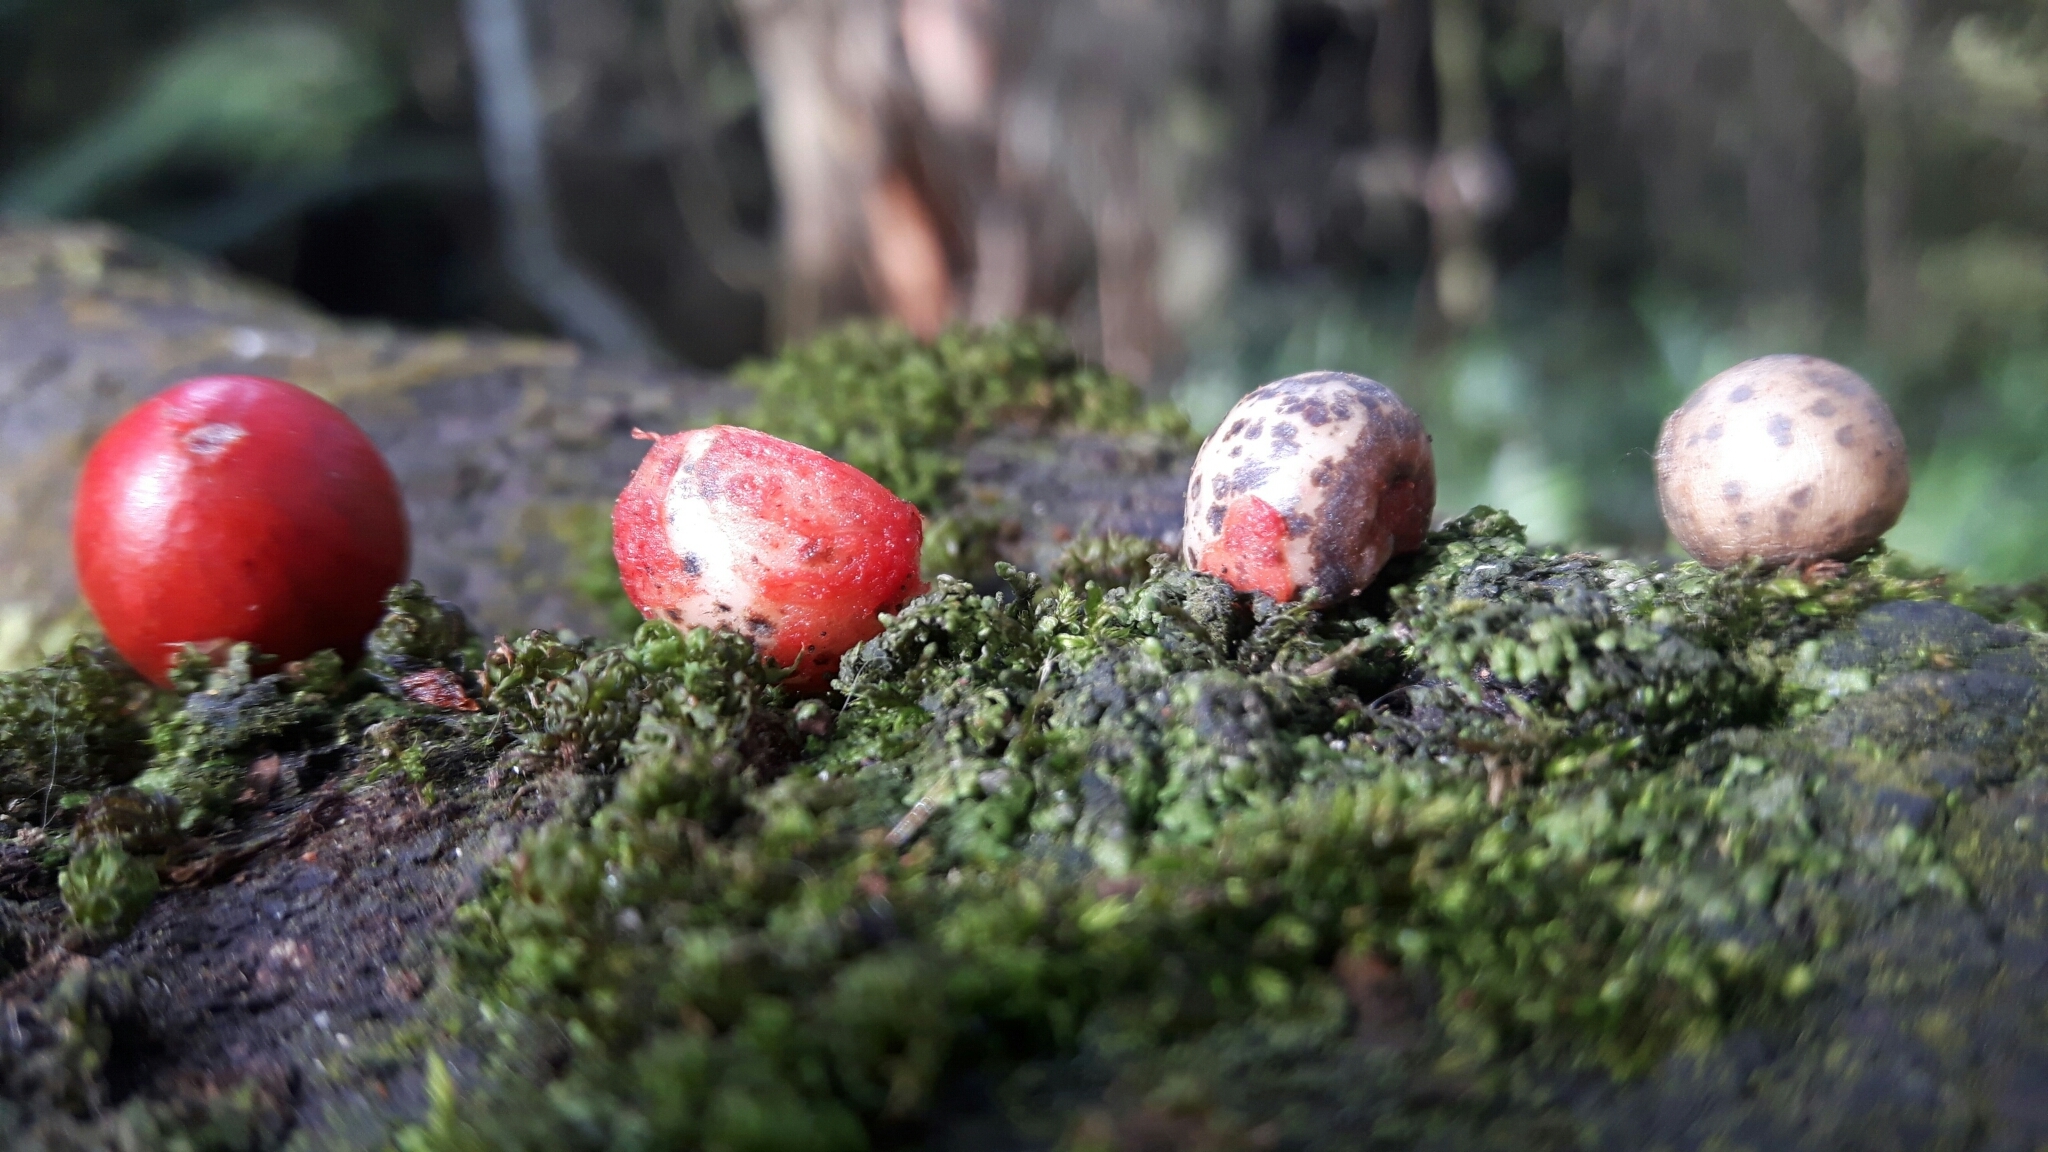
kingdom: Plantae
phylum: Tracheophyta
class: Liliopsida
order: Liliales
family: Ripogonaceae
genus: Ripogonum
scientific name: Ripogonum scandens
